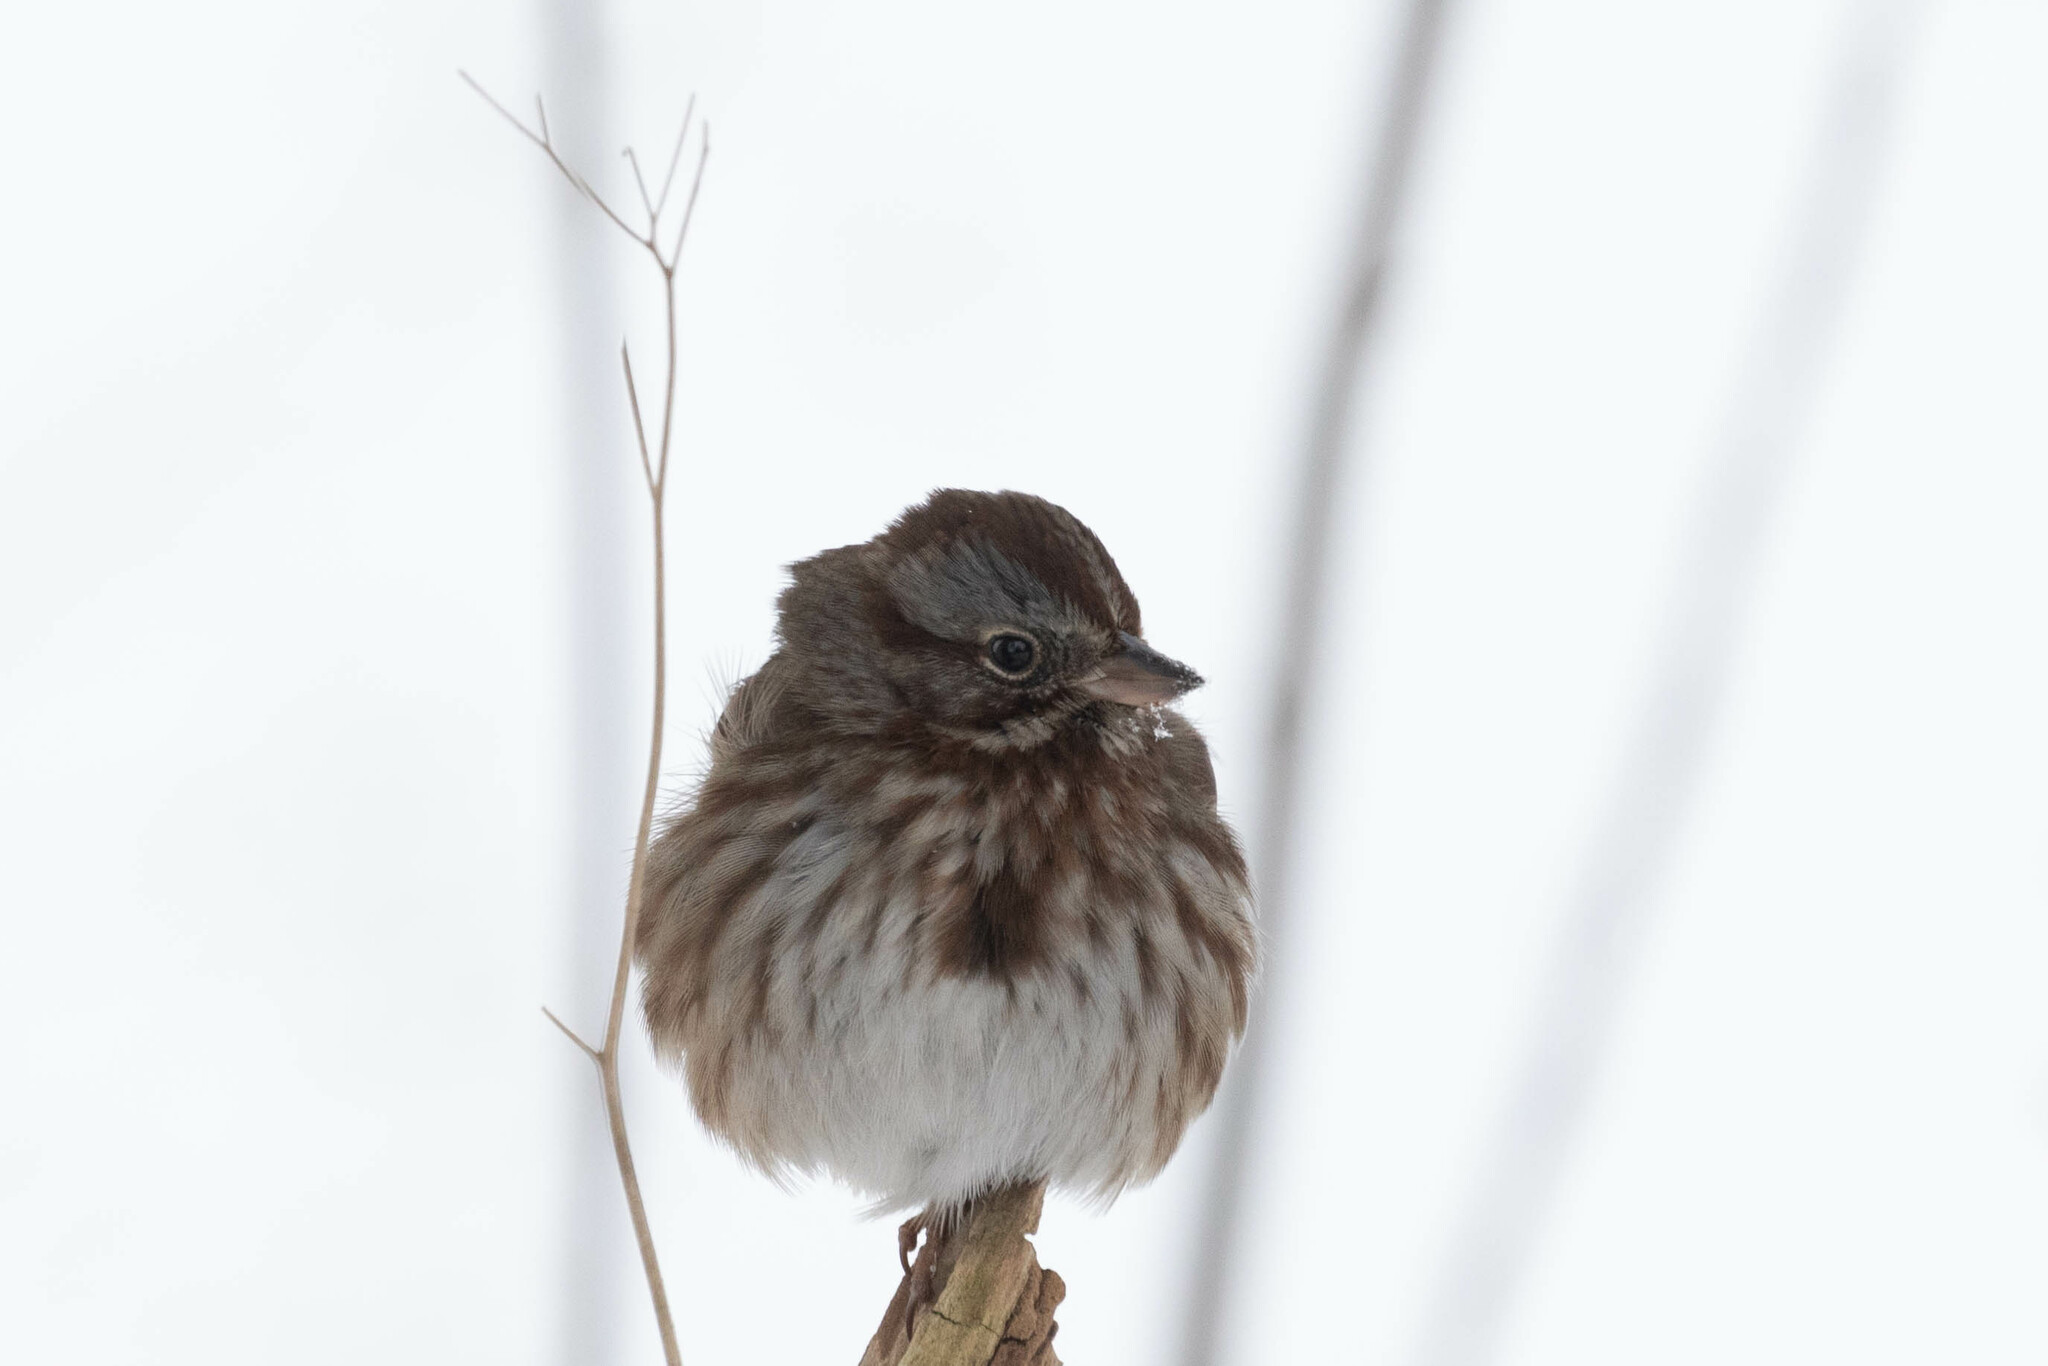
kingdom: Animalia
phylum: Chordata
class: Aves
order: Passeriformes
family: Passerellidae
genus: Melospiza
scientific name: Melospiza melodia
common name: Song sparrow
